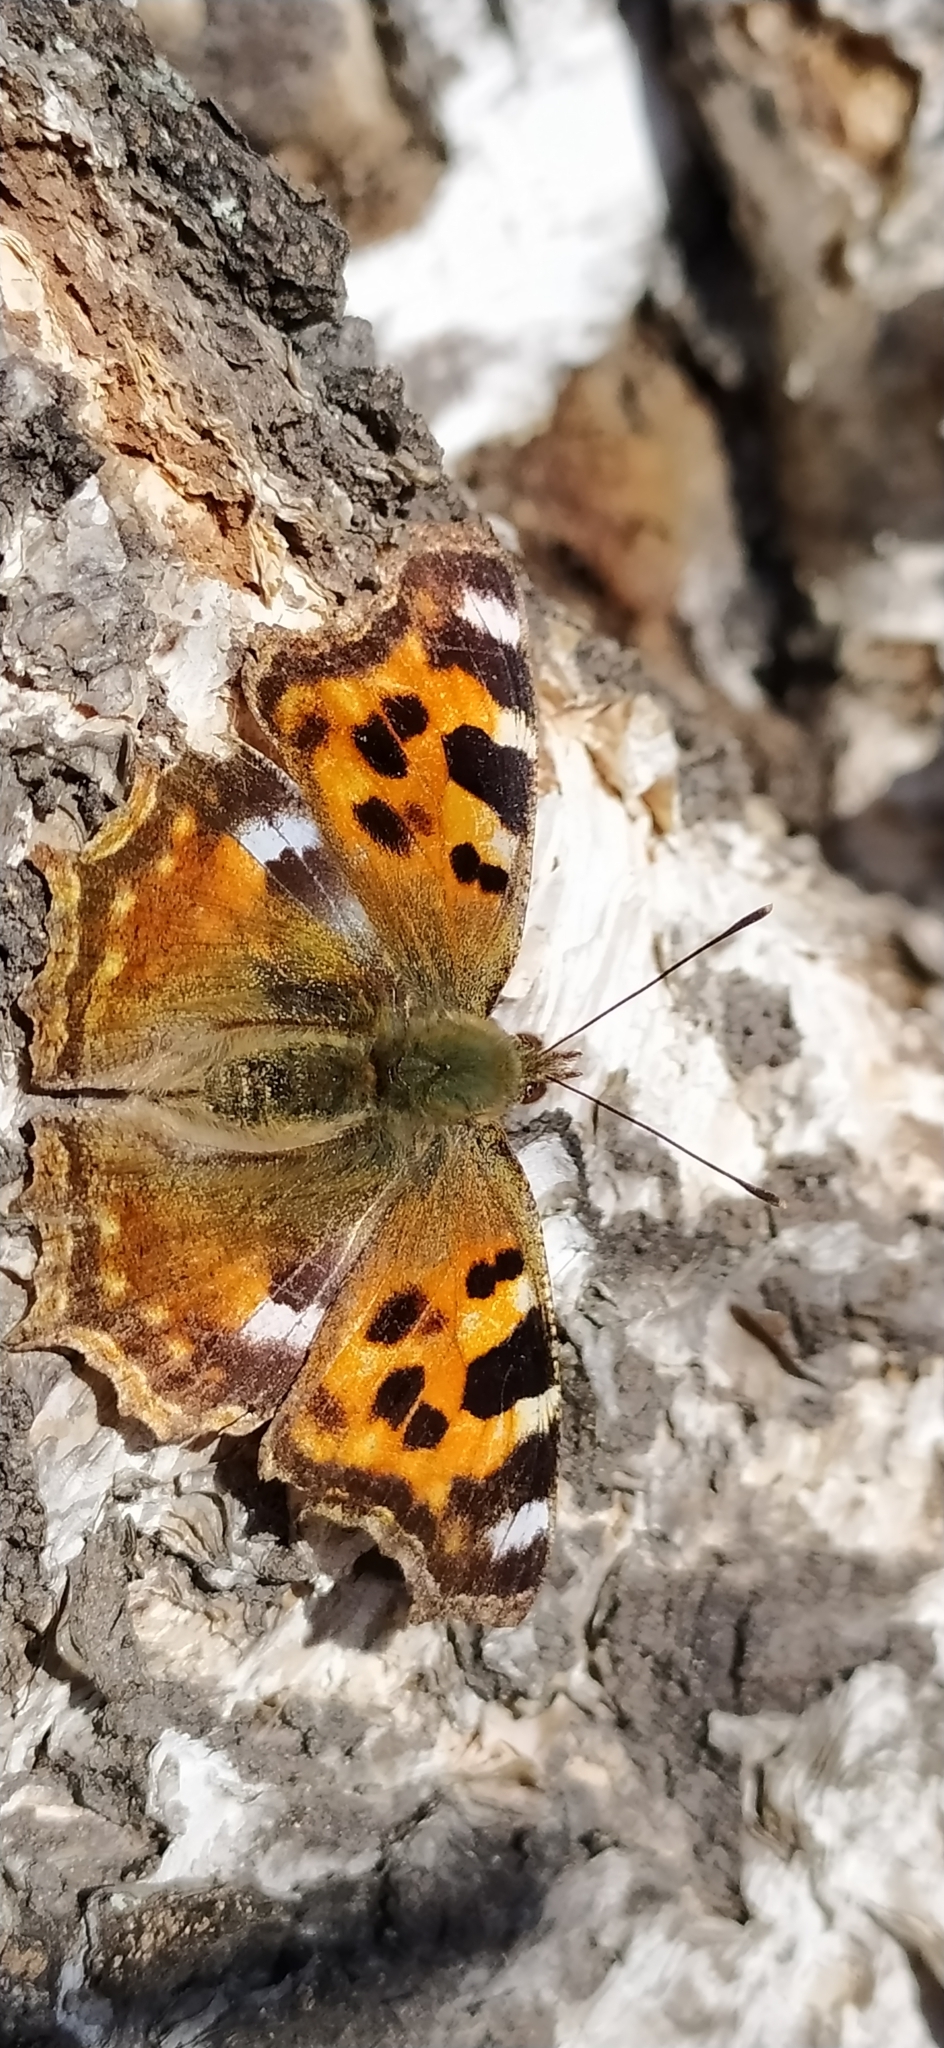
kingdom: Animalia
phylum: Arthropoda
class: Insecta
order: Lepidoptera
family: Nymphalidae
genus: Polygonia
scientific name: Polygonia vaualbum
